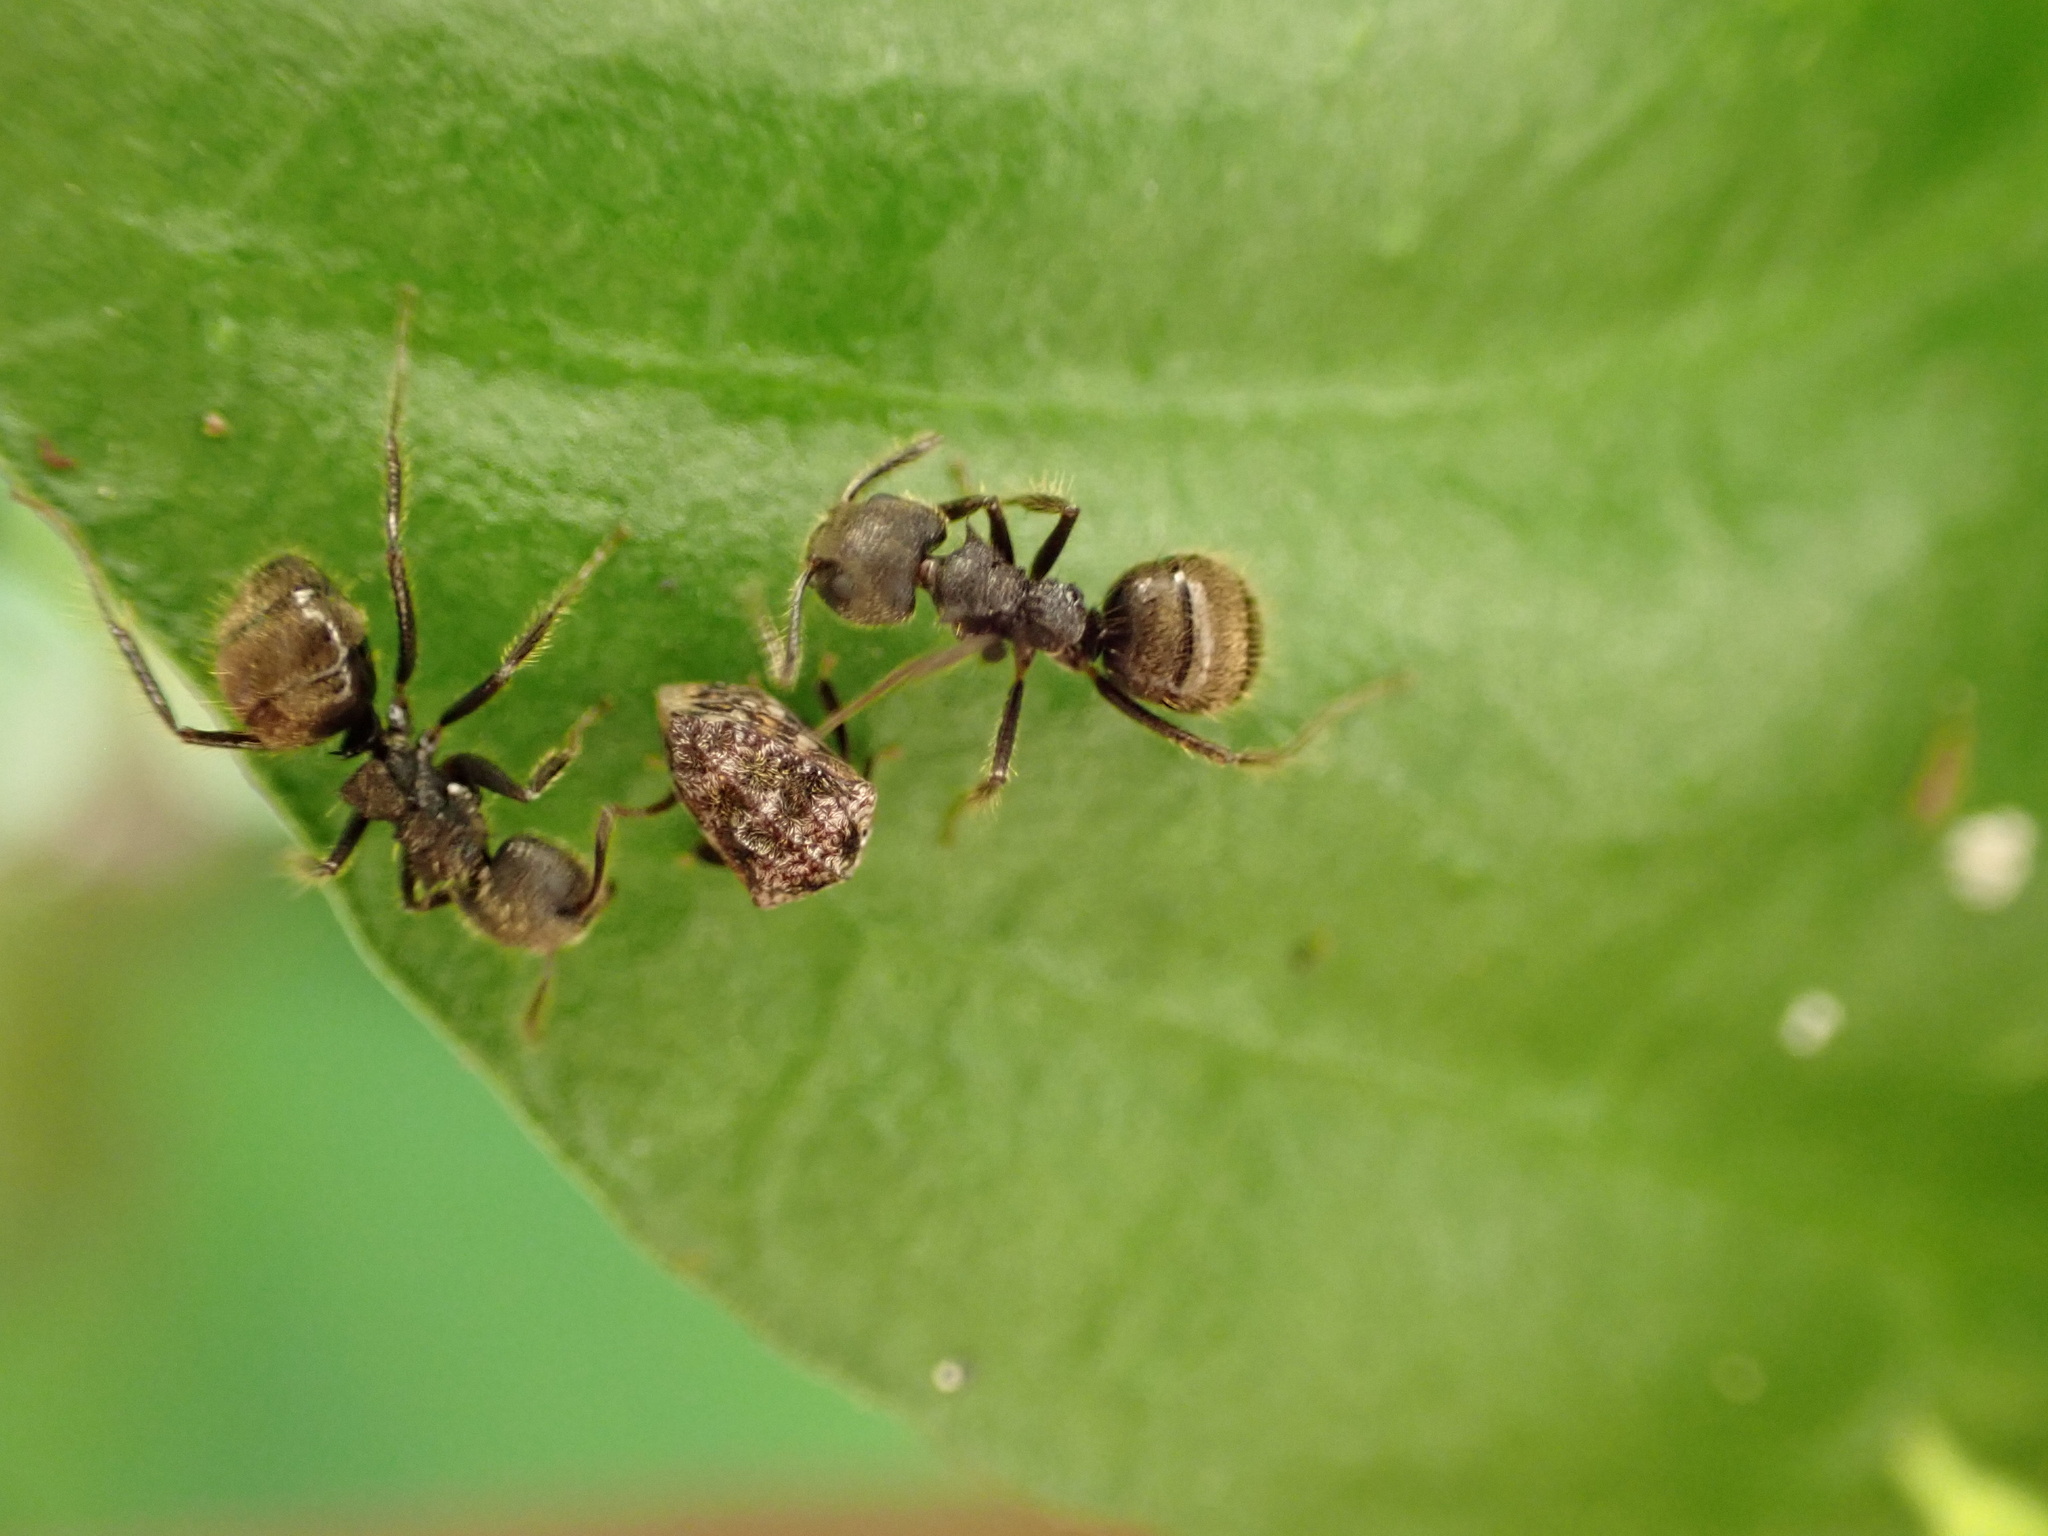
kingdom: Animalia
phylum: Arthropoda
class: Insecta
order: Hymenoptera
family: Formicidae
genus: Dolichoderus
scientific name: Dolichoderus bispinosus
